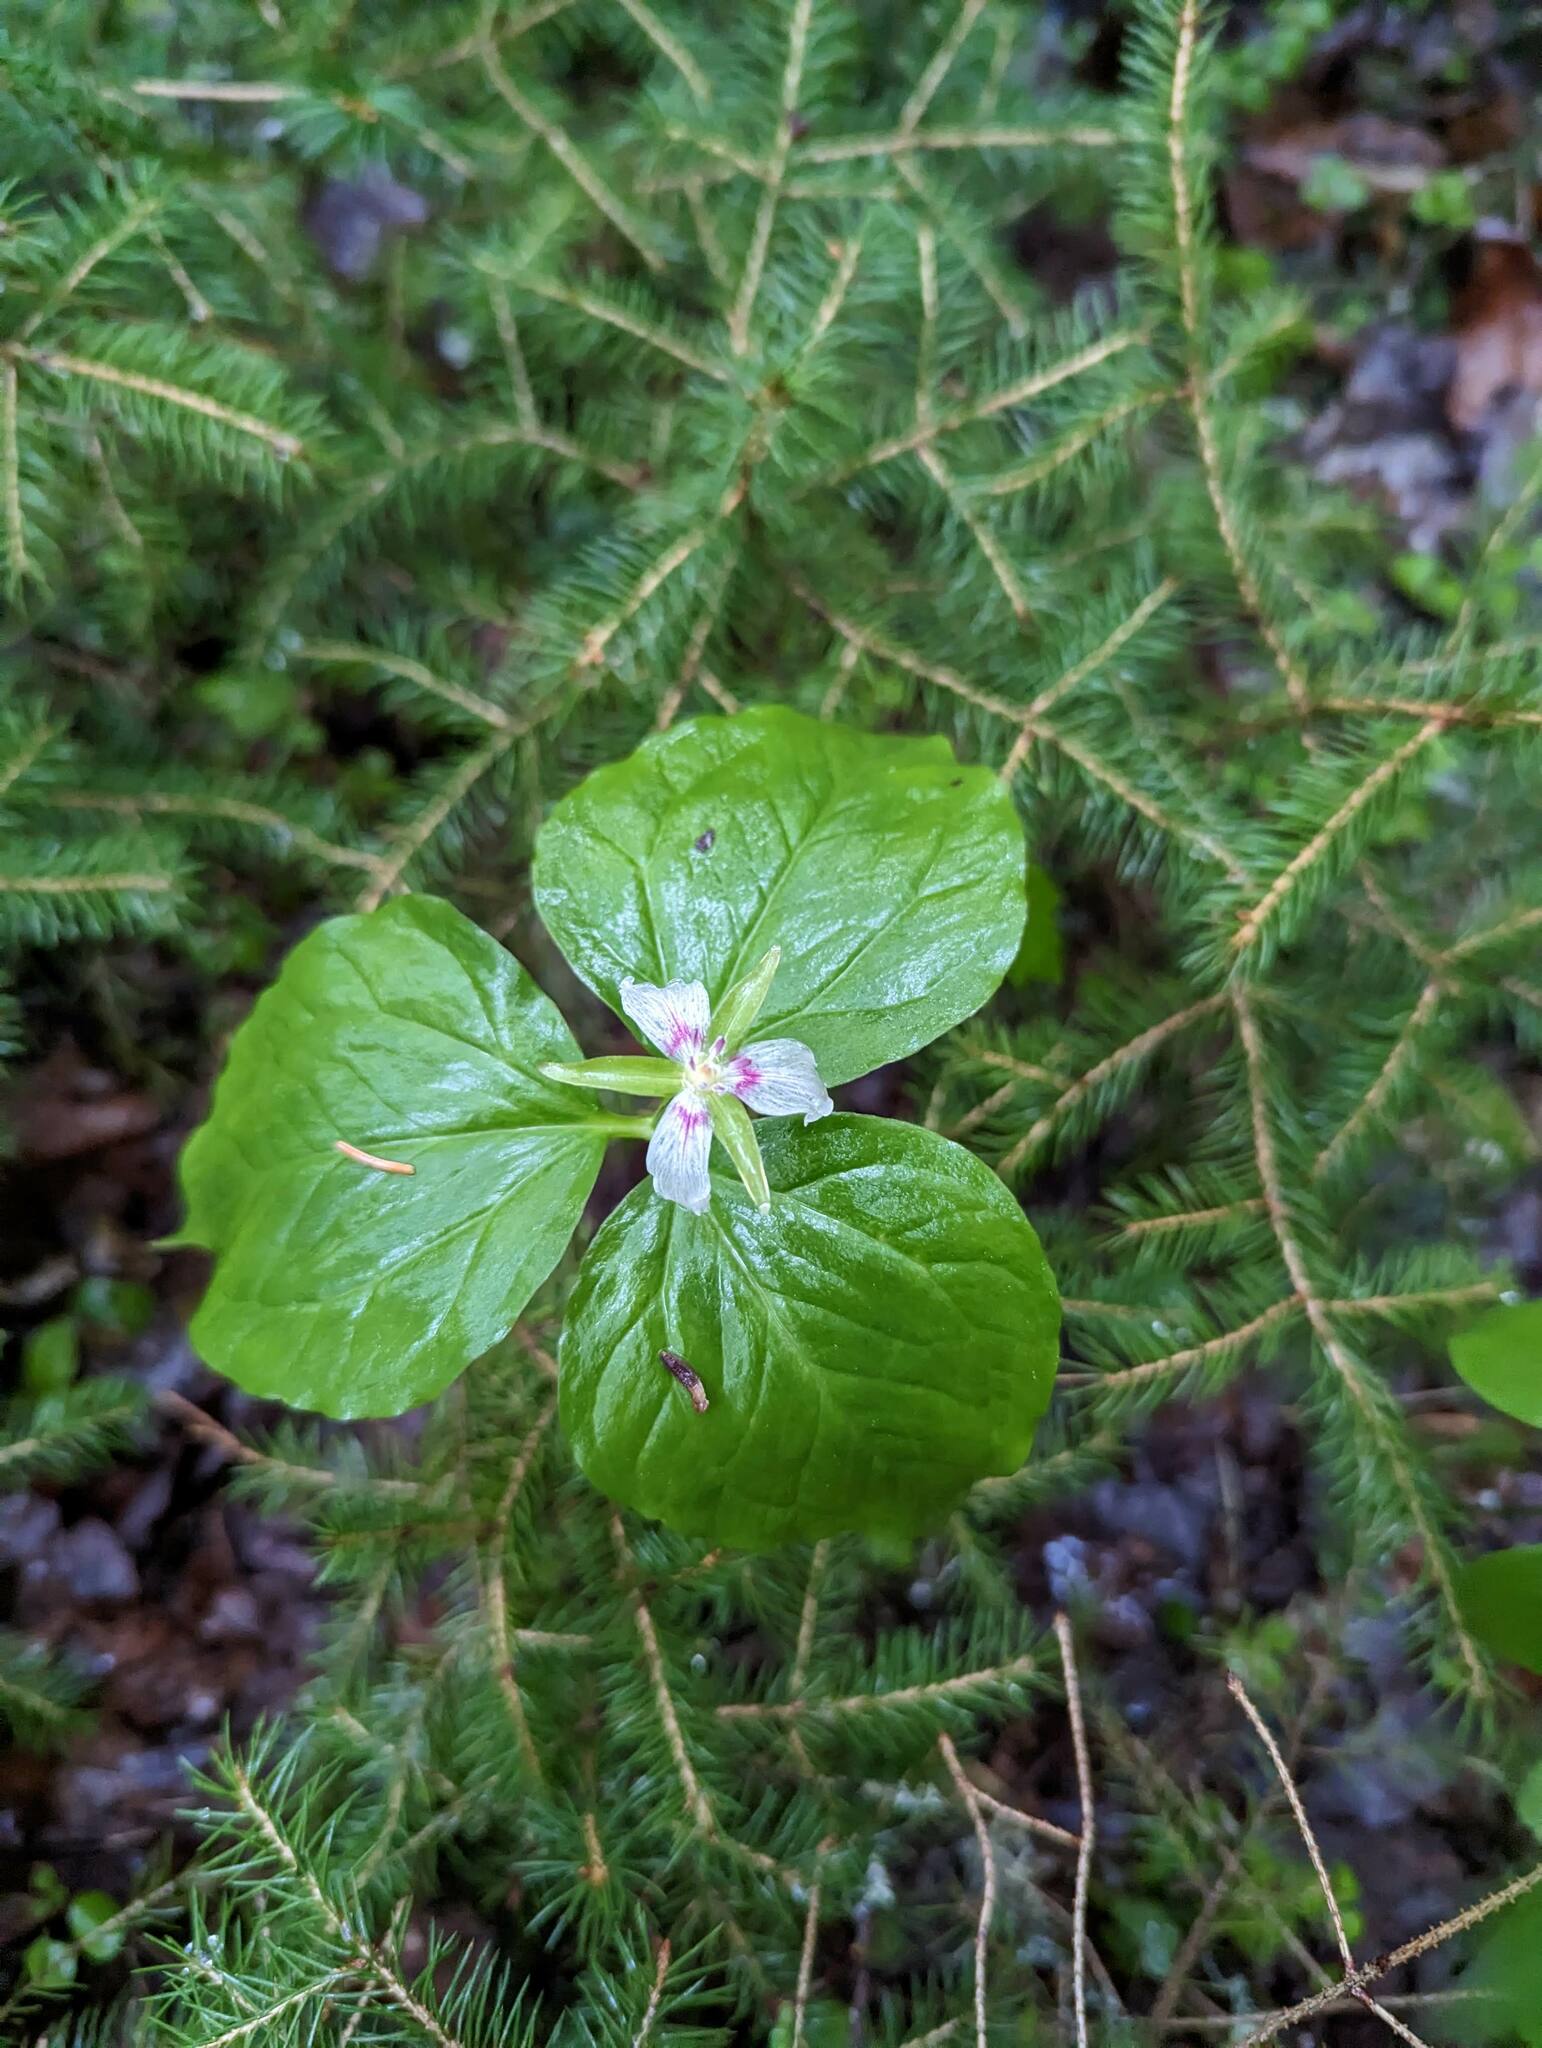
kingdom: Plantae
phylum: Tracheophyta
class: Liliopsida
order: Liliales
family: Melanthiaceae
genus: Trillium
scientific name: Trillium undulatum
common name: Paint trillium
